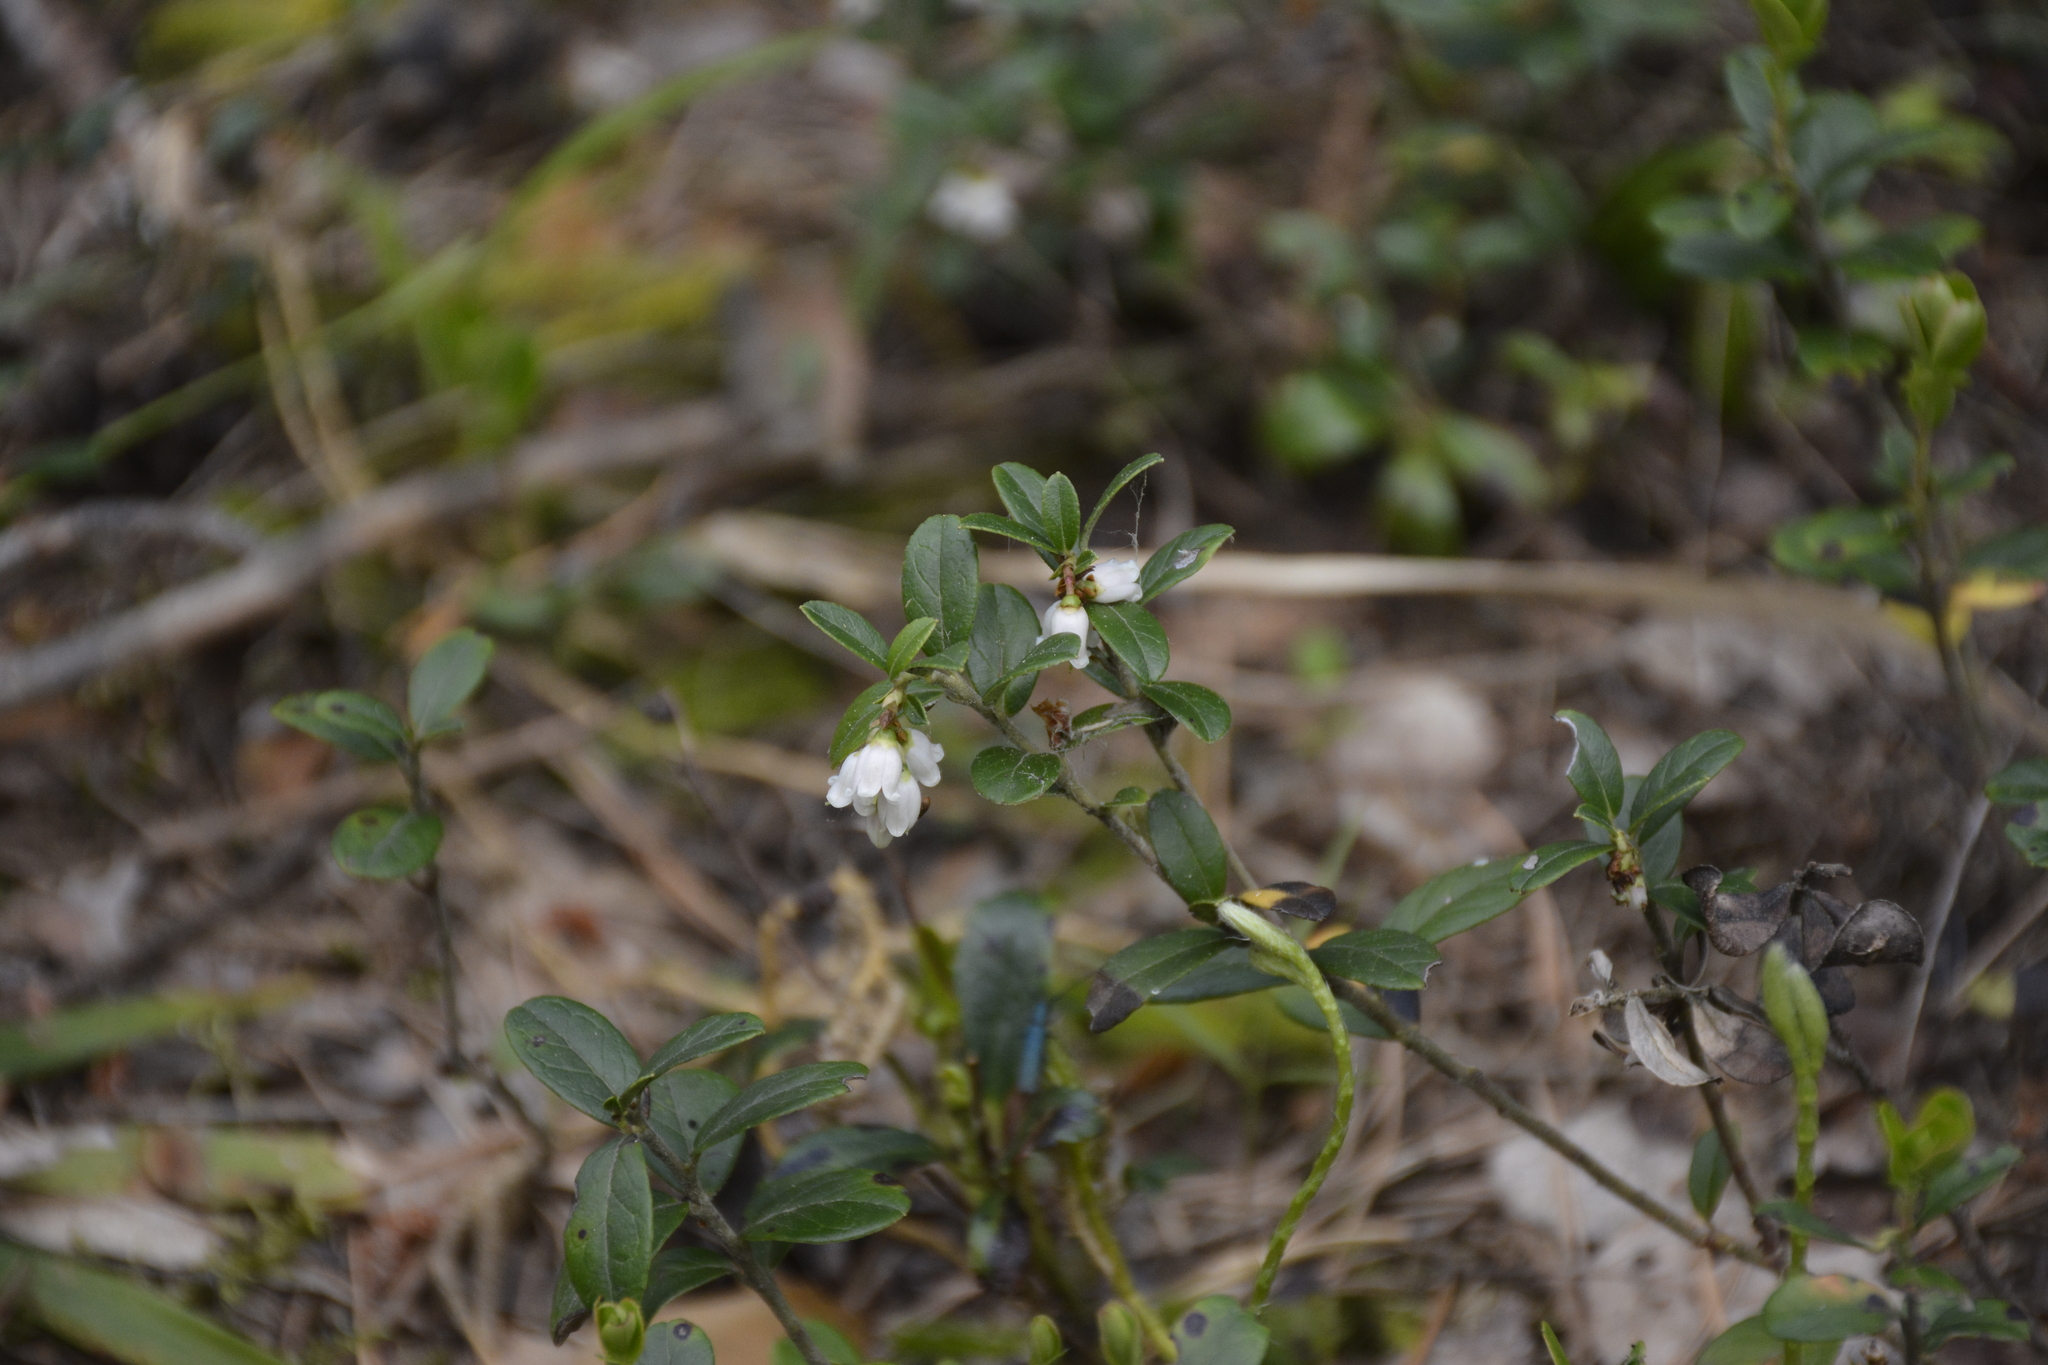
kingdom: Plantae
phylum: Tracheophyta
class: Magnoliopsida
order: Ericales
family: Ericaceae
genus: Vaccinium
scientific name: Vaccinium vitis-idaea
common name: Cowberry
